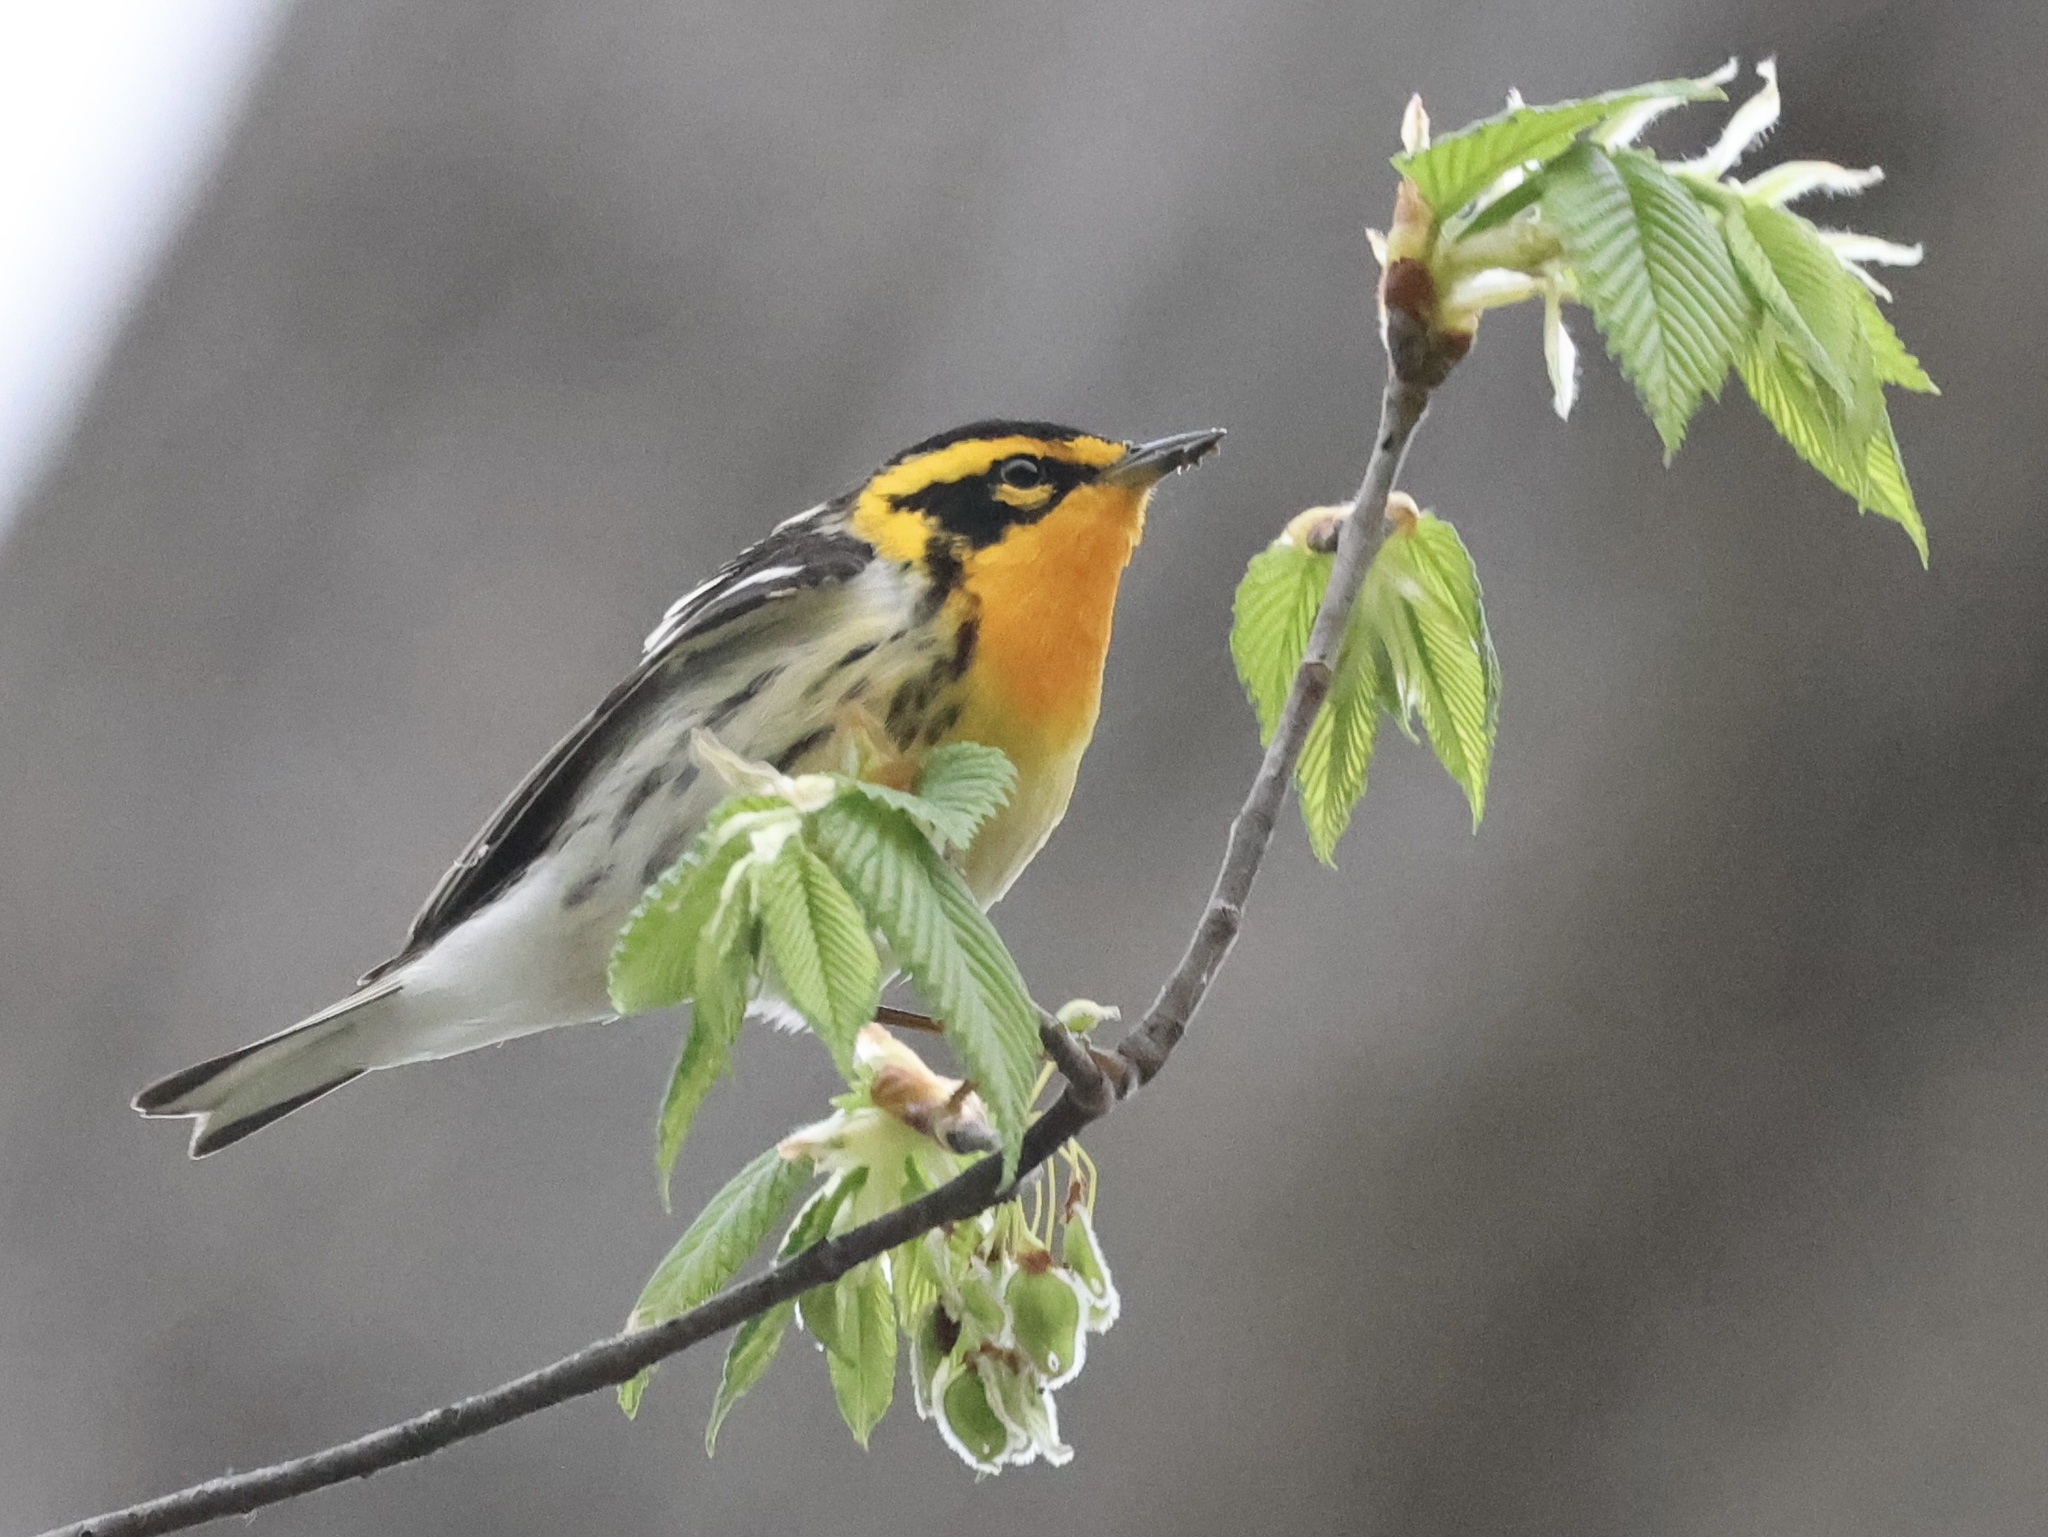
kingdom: Animalia
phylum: Chordata
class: Aves
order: Passeriformes
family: Parulidae
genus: Setophaga
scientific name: Setophaga fusca
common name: Blackburnian warbler
